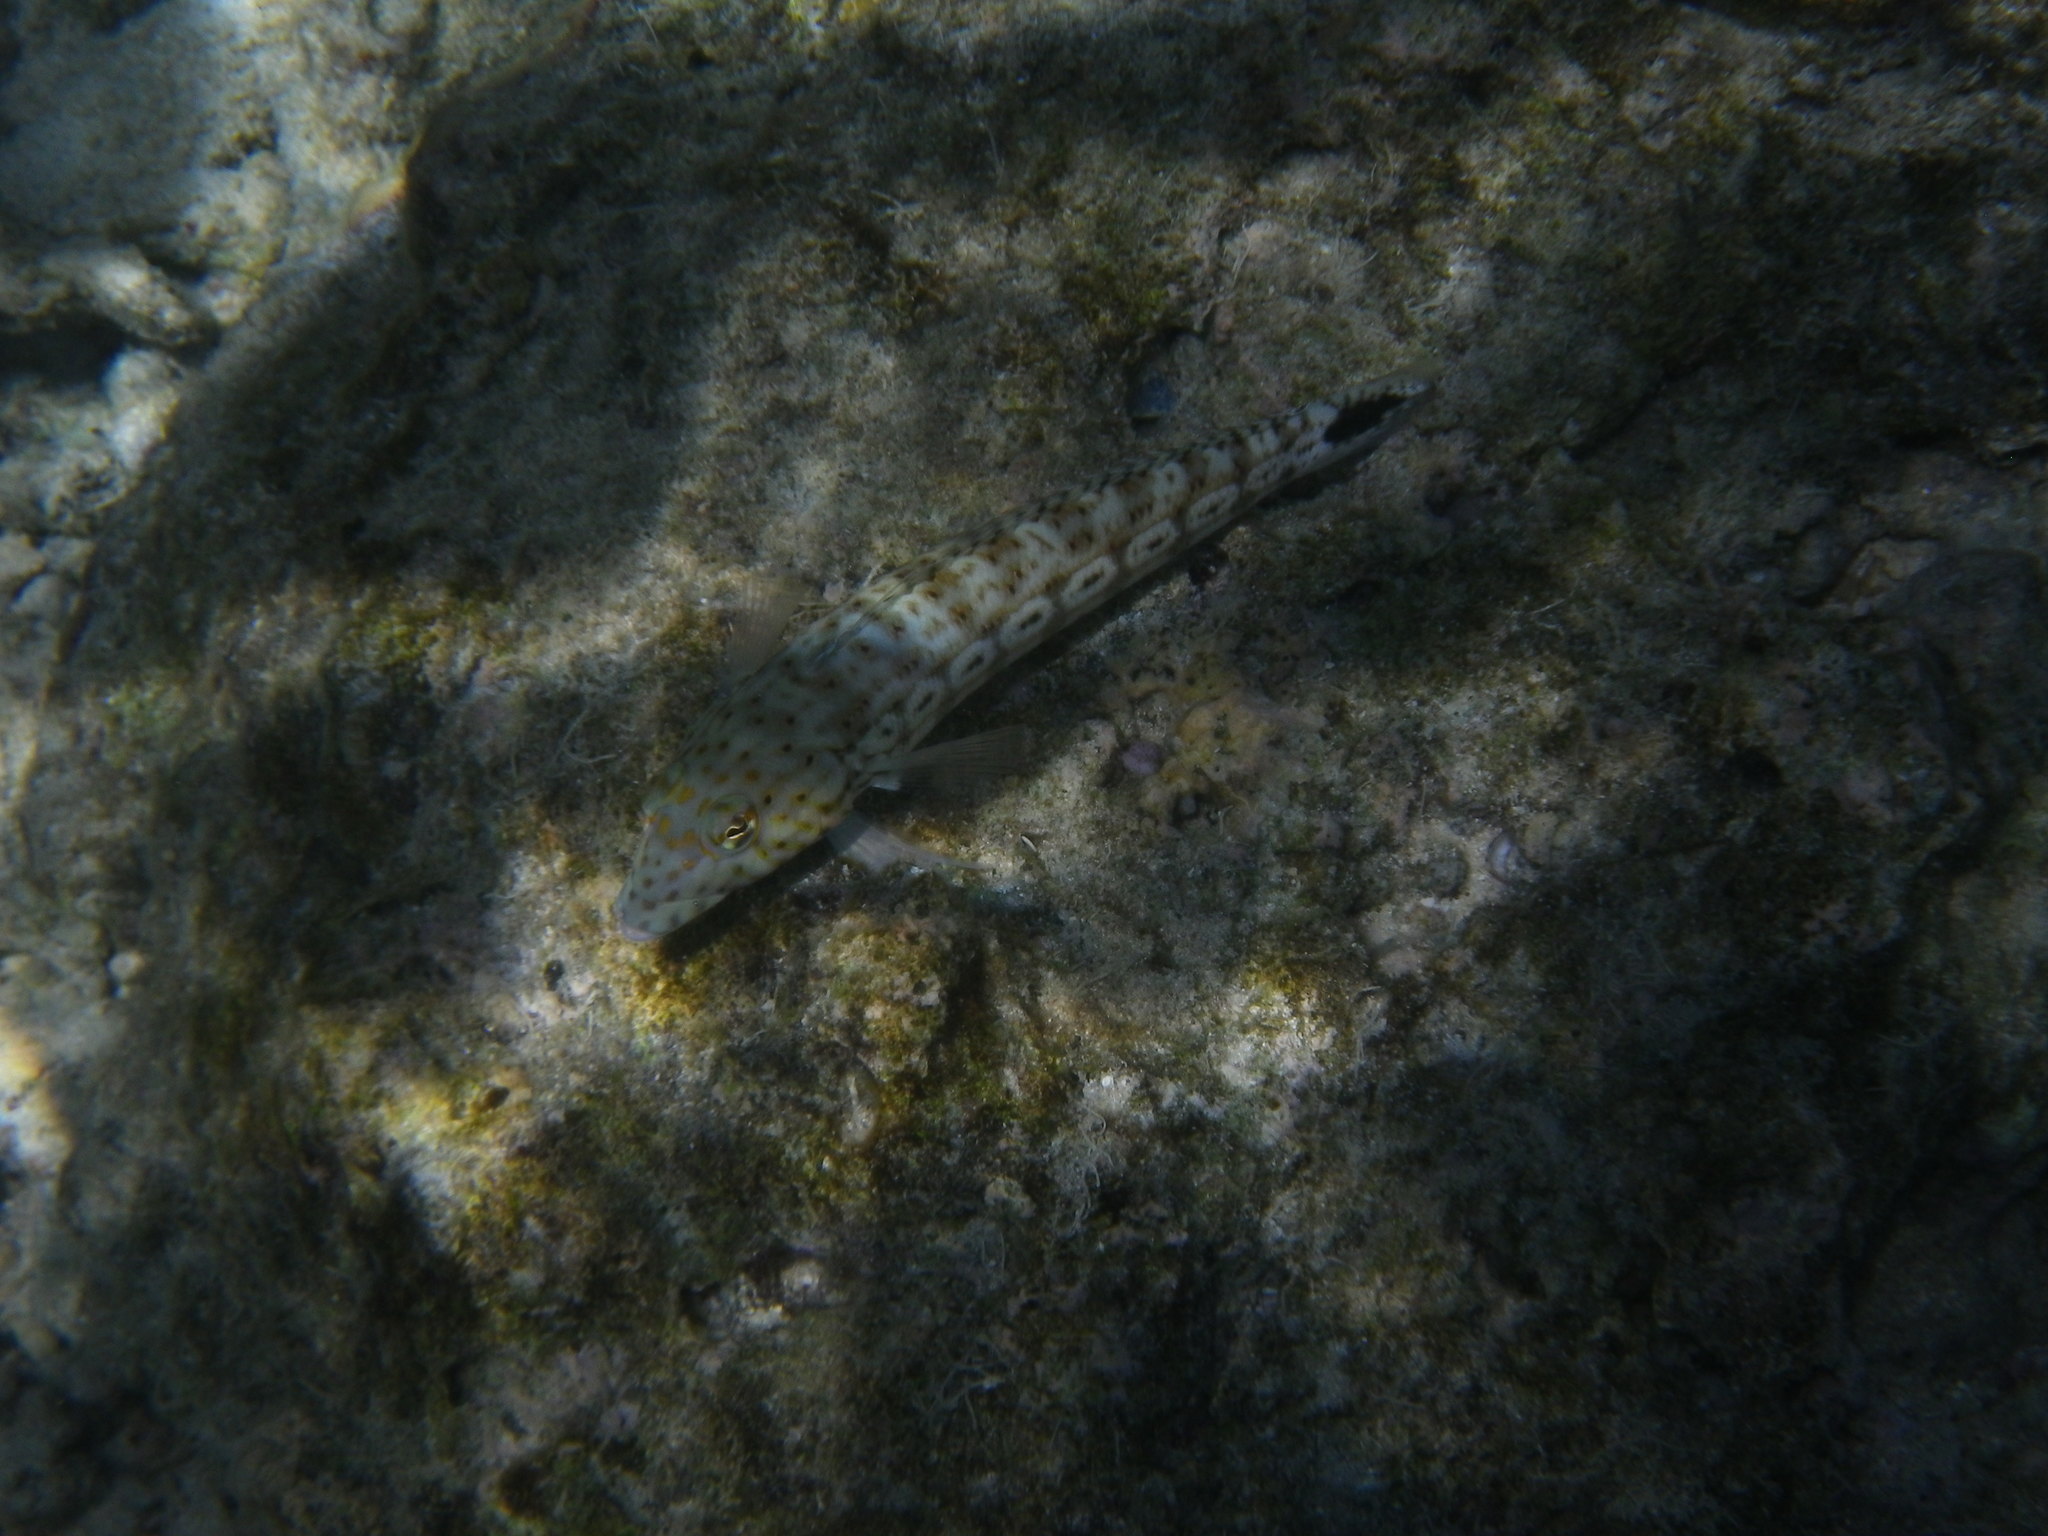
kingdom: Animalia
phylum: Chordata
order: Perciformes
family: Pinguipedidae
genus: Parapercis
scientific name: Parapercis xanthogramma
